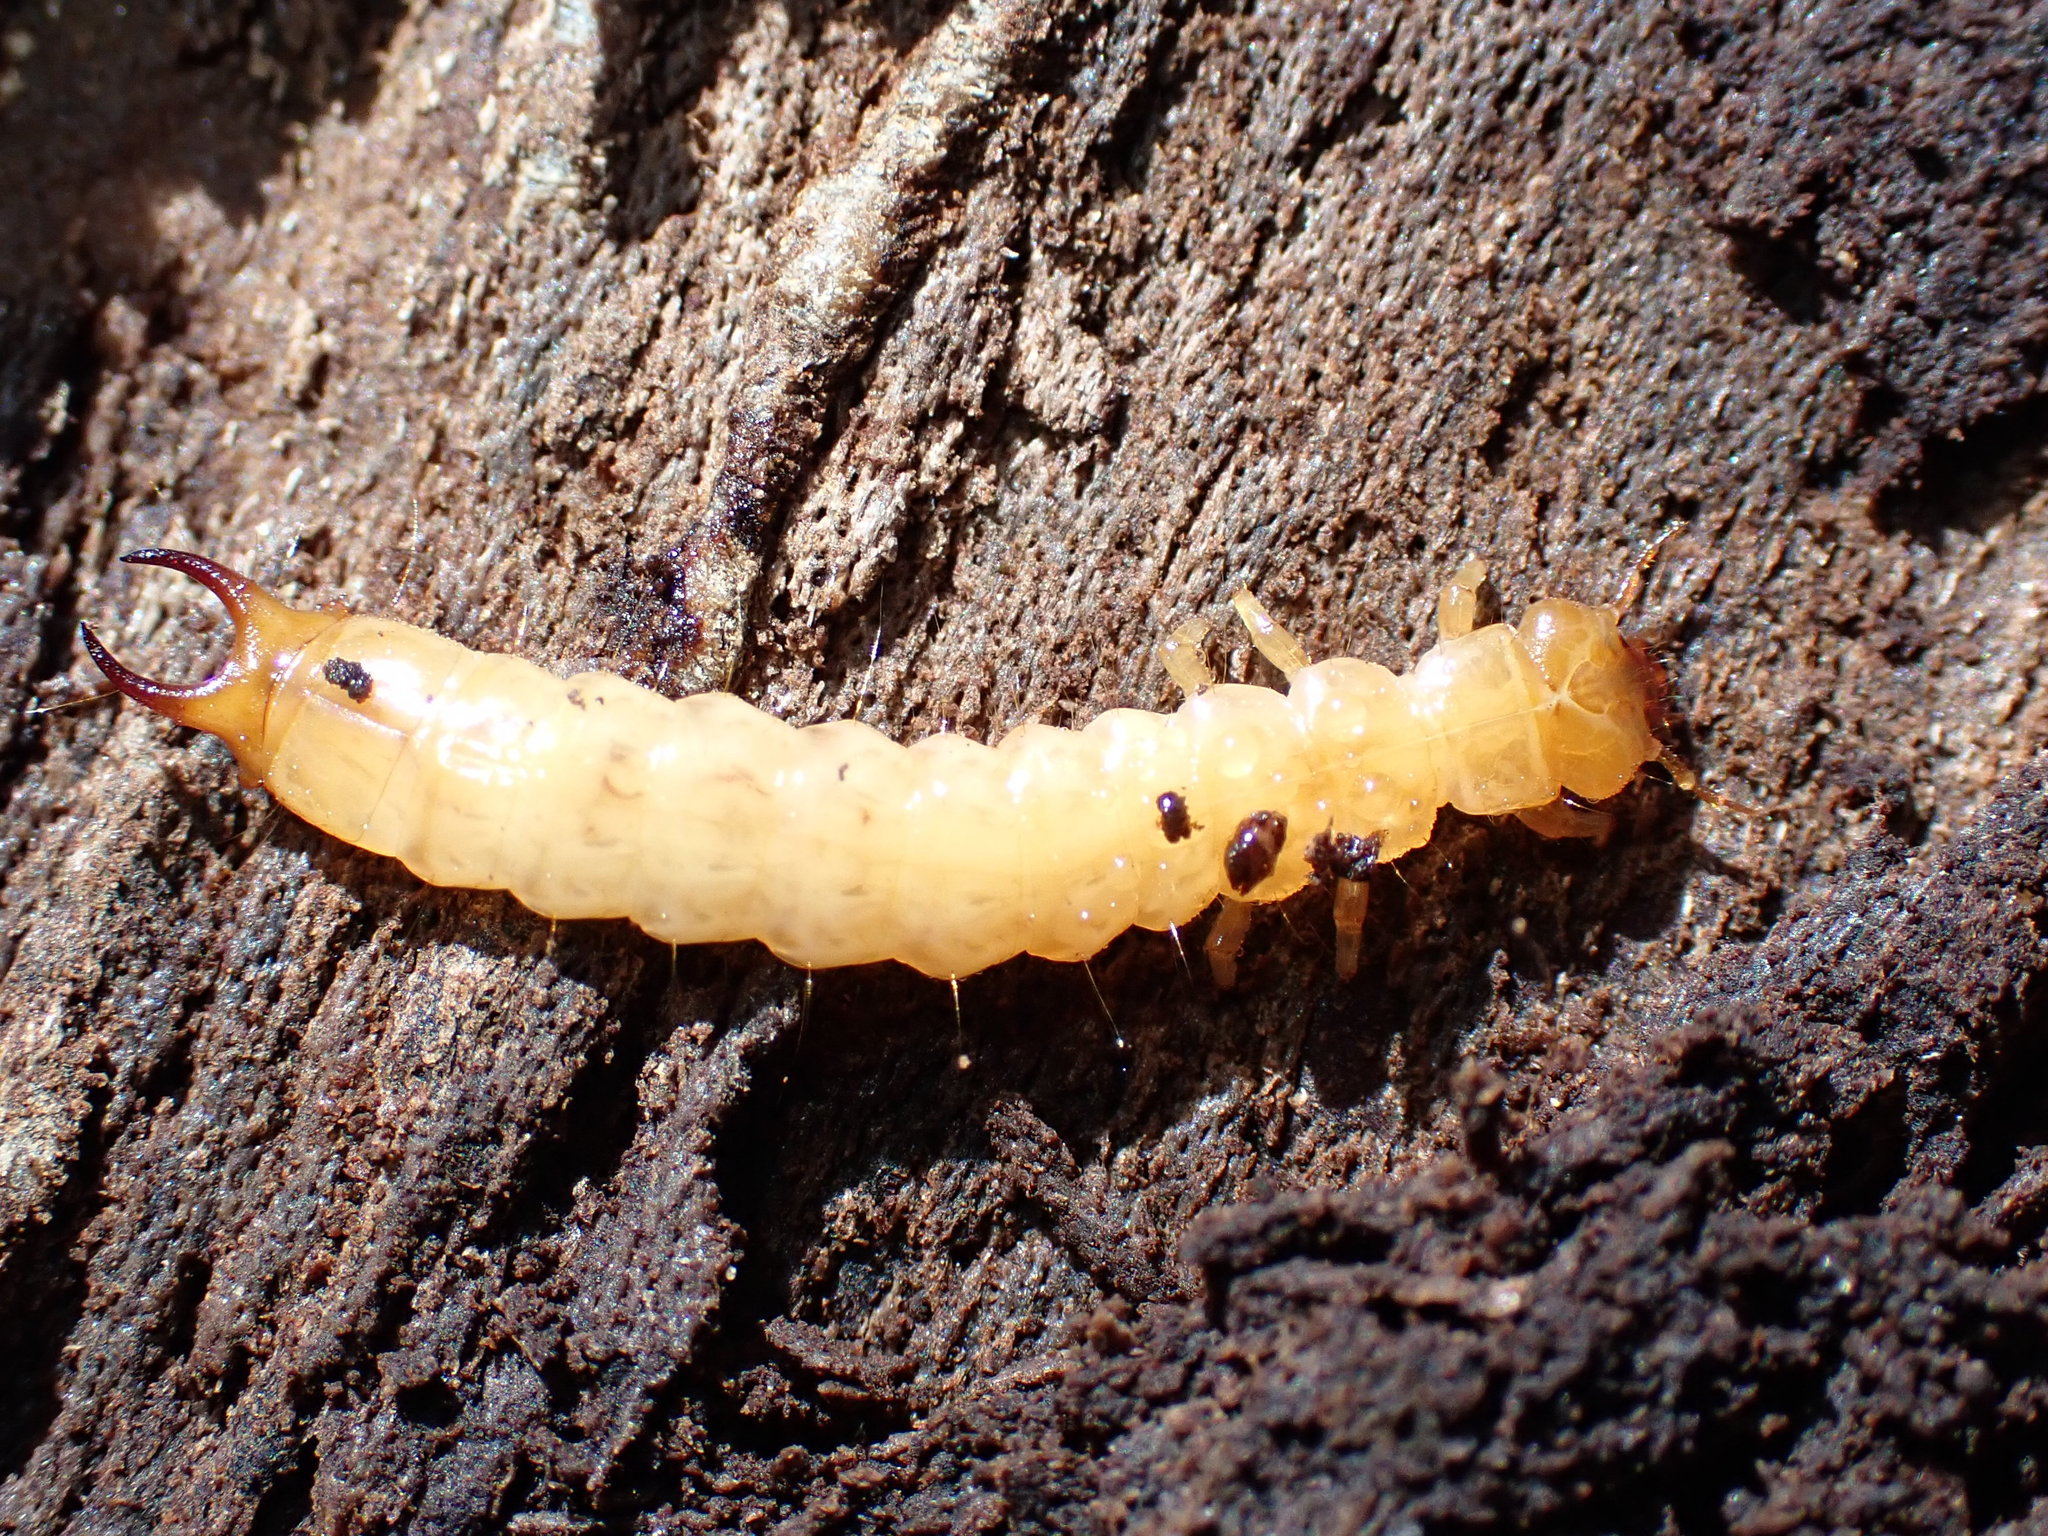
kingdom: Animalia
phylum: Arthropoda
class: Insecta
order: Coleoptera
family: Pyrochroidae
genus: Schizotus
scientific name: Schizotus pectinicornis
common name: Scarce cardinal beetle
